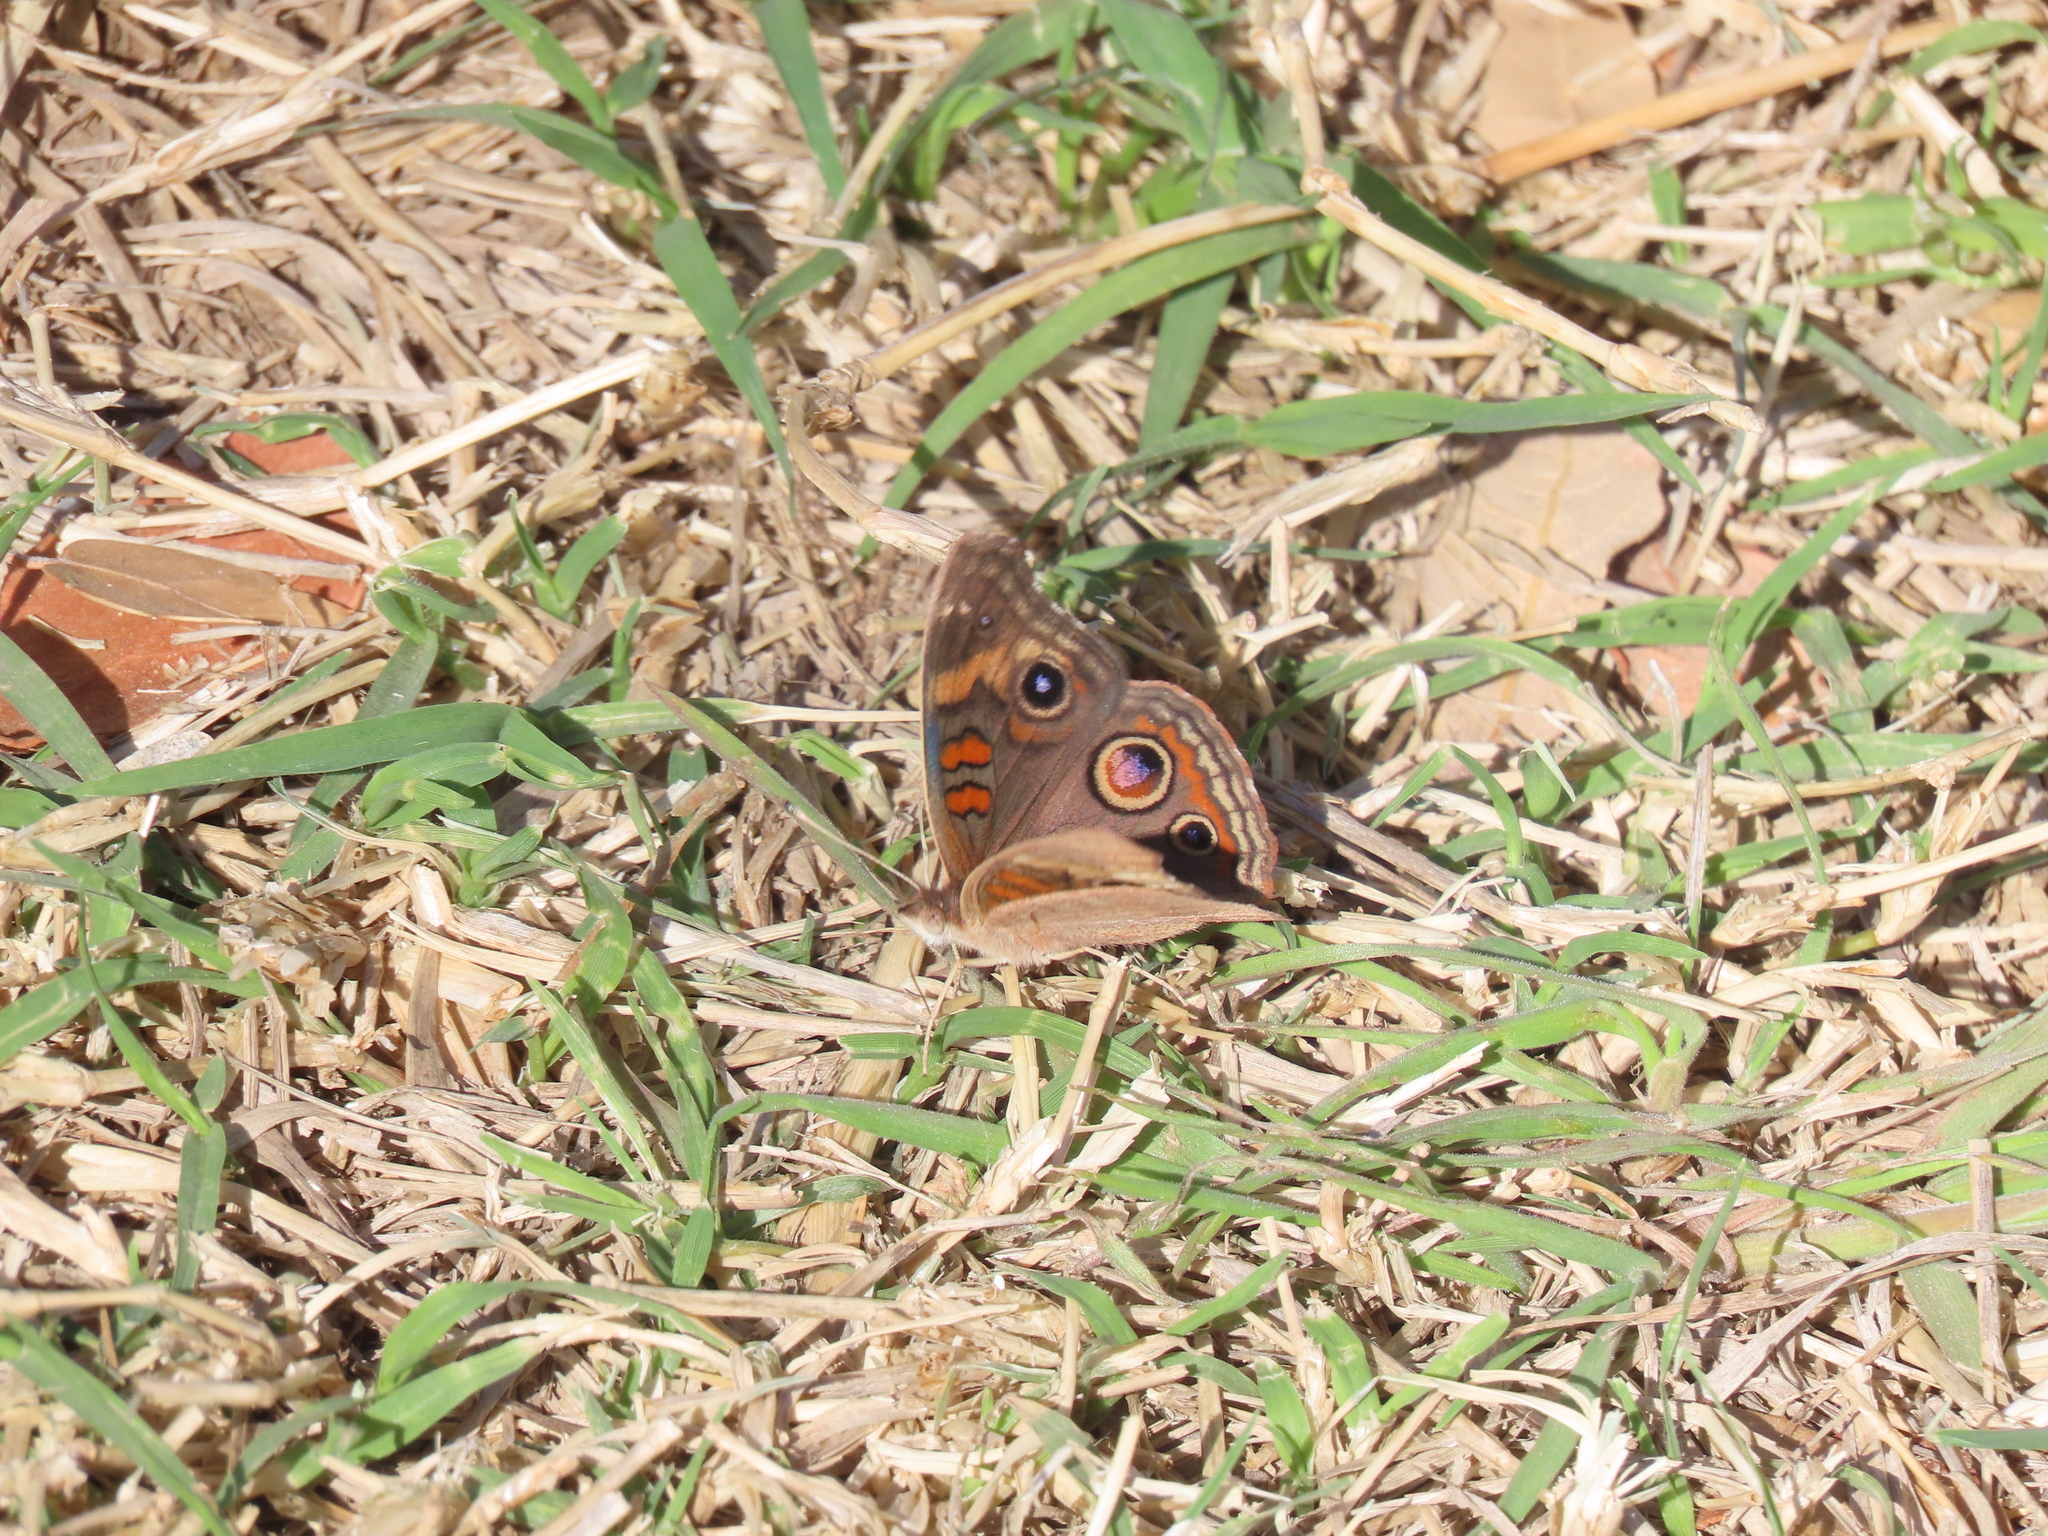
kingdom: Animalia
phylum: Arthropoda
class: Insecta
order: Lepidoptera
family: Nymphalidae
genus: Junonia
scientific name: Junonia grisea
